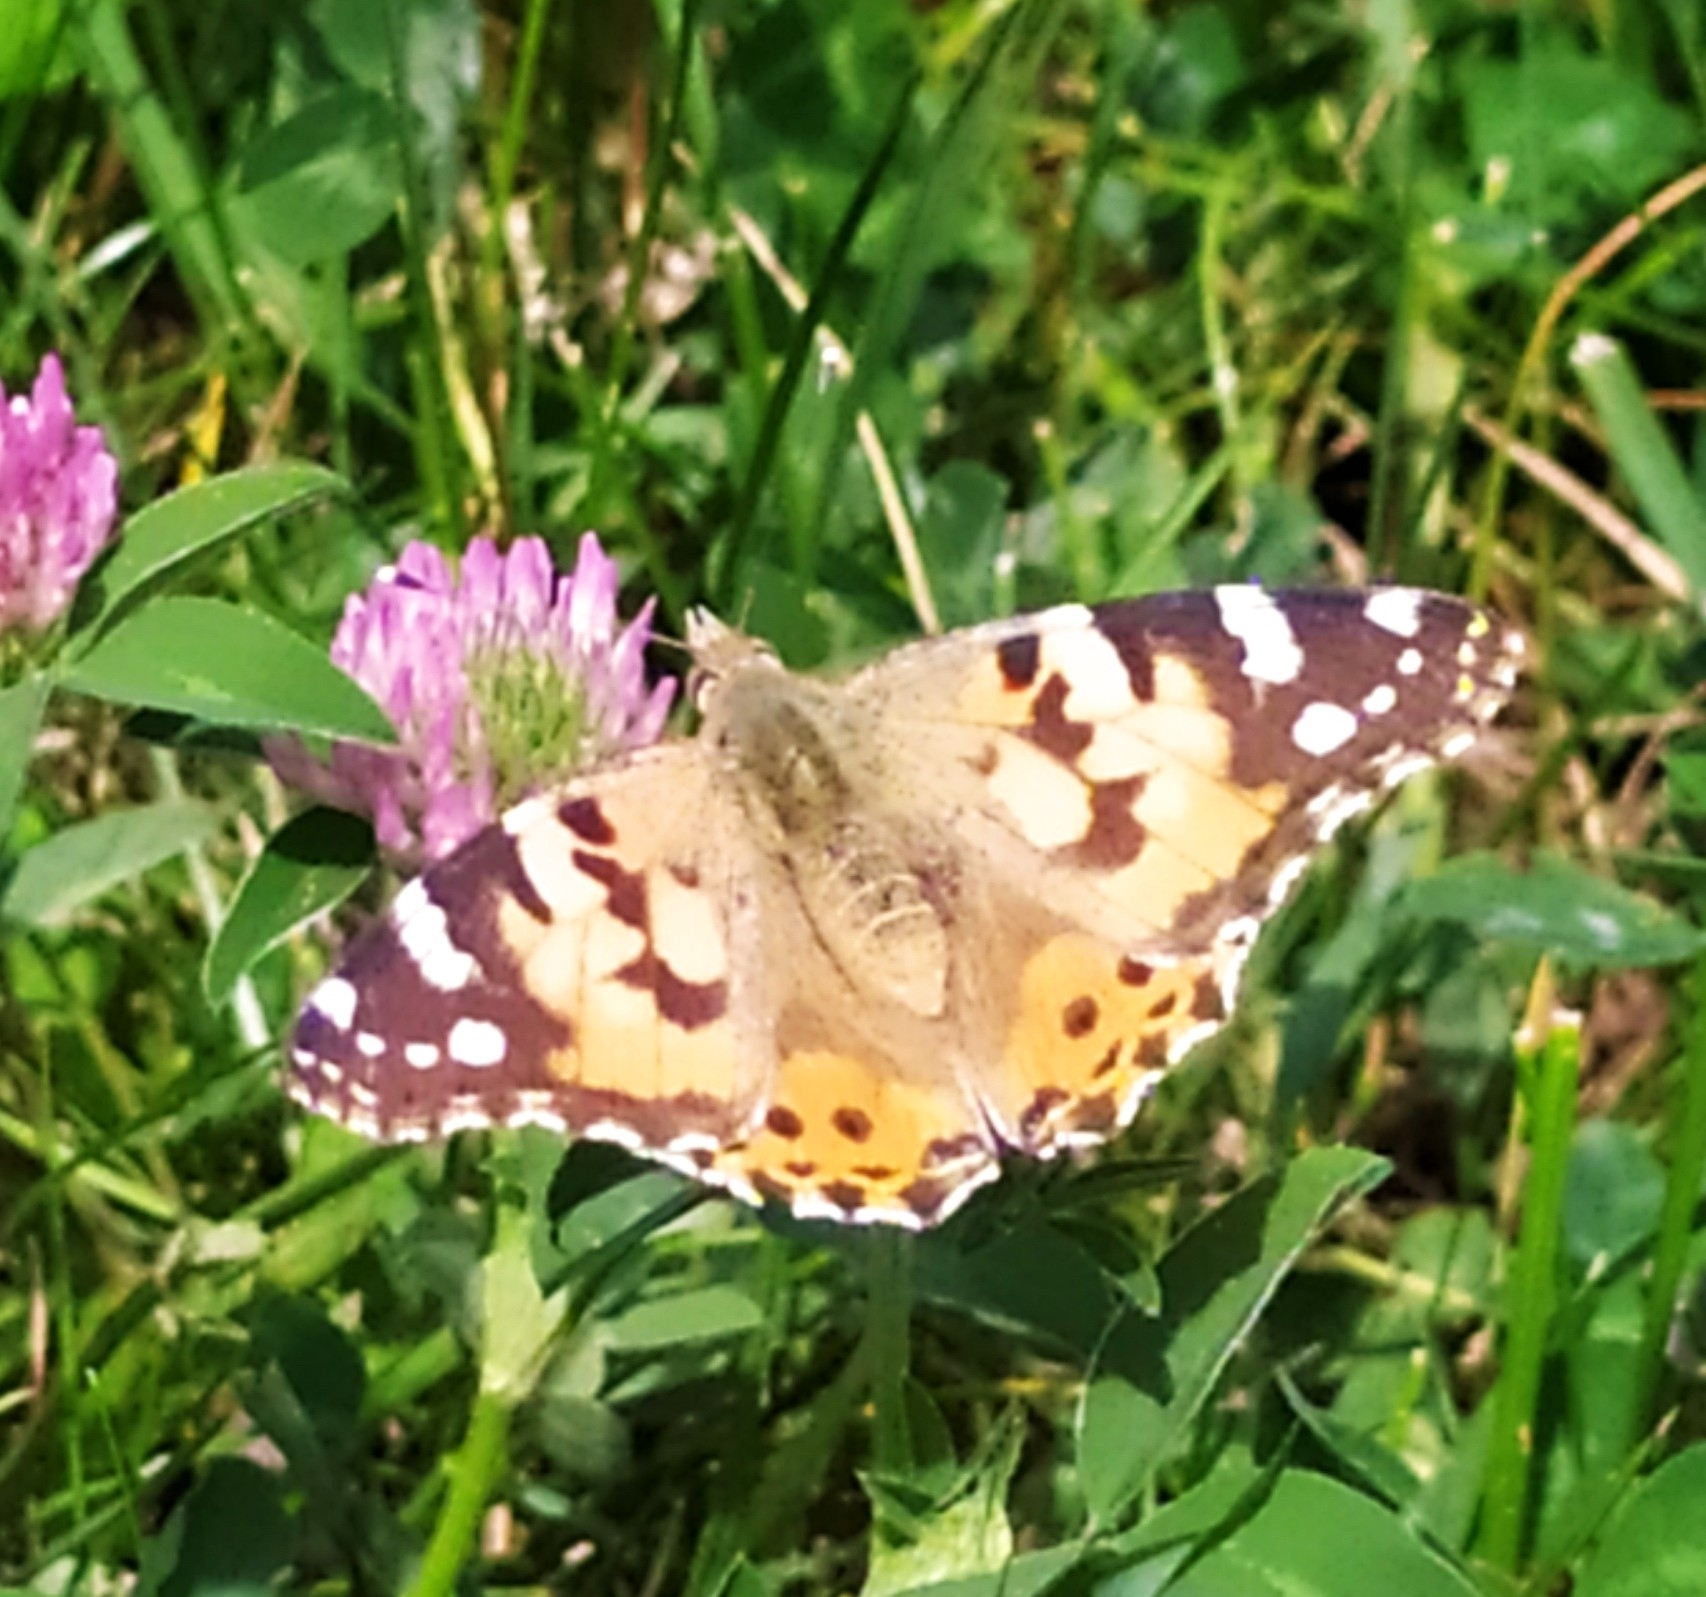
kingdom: Animalia
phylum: Arthropoda
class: Insecta
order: Lepidoptera
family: Nymphalidae
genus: Vanessa
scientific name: Vanessa cardui
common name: Painted lady
